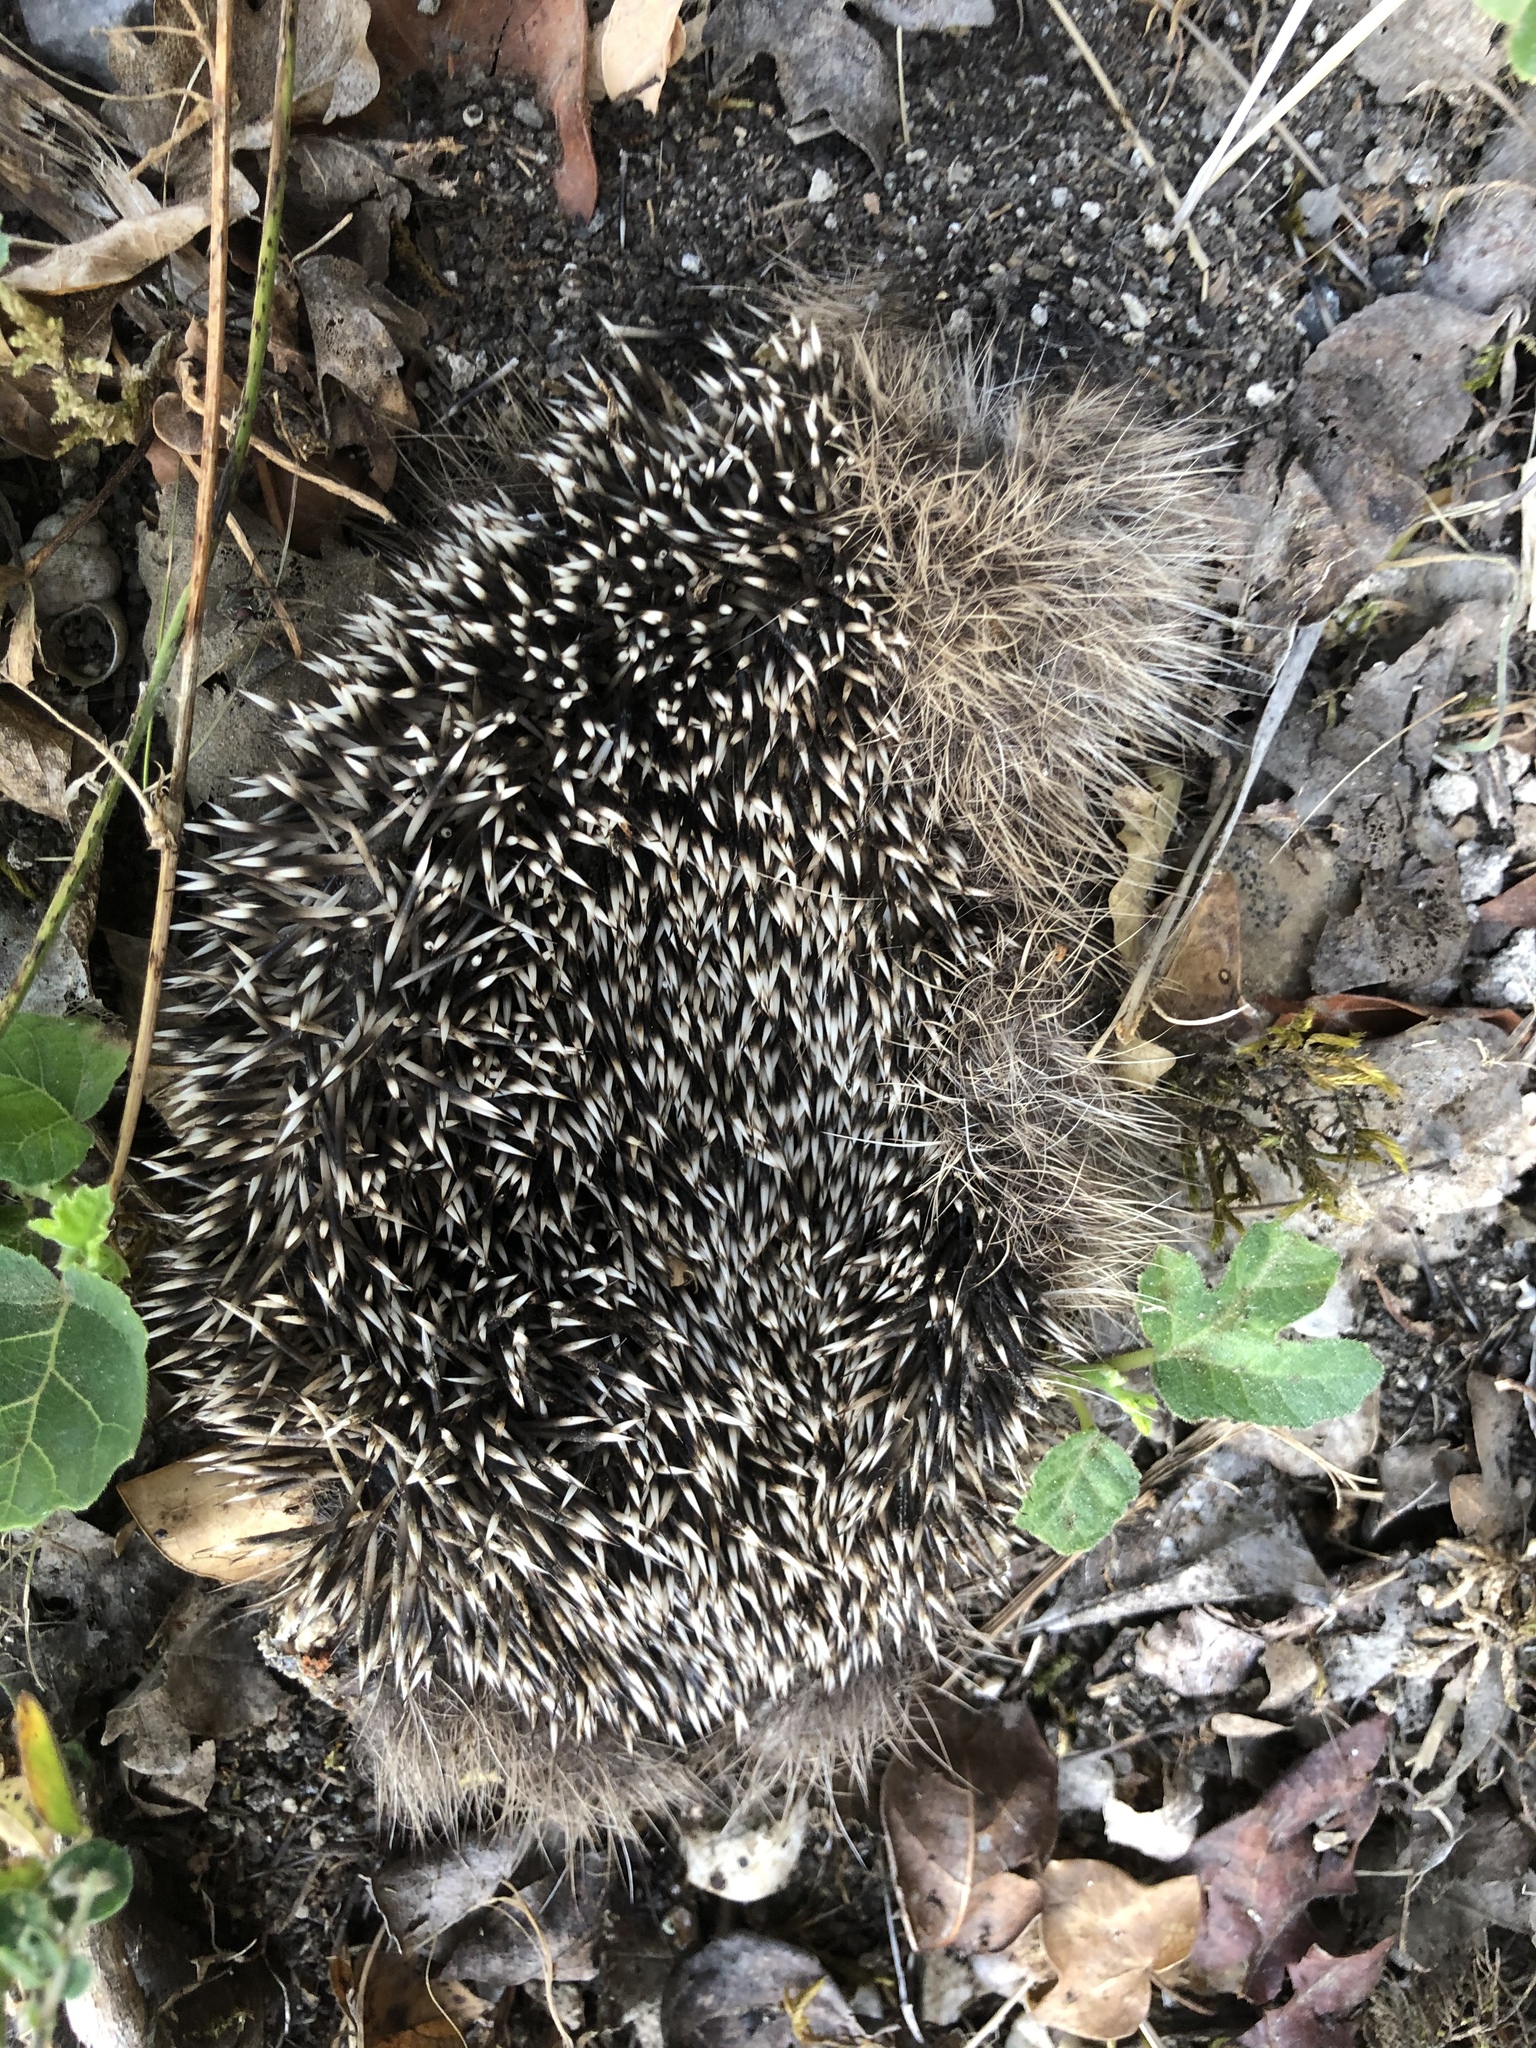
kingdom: Animalia
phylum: Chordata
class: Mammalia
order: Erinaceomorpha
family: Erinaceidae
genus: Erinaceus
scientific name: Erinaceus europaeus
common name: West european hedgehog
